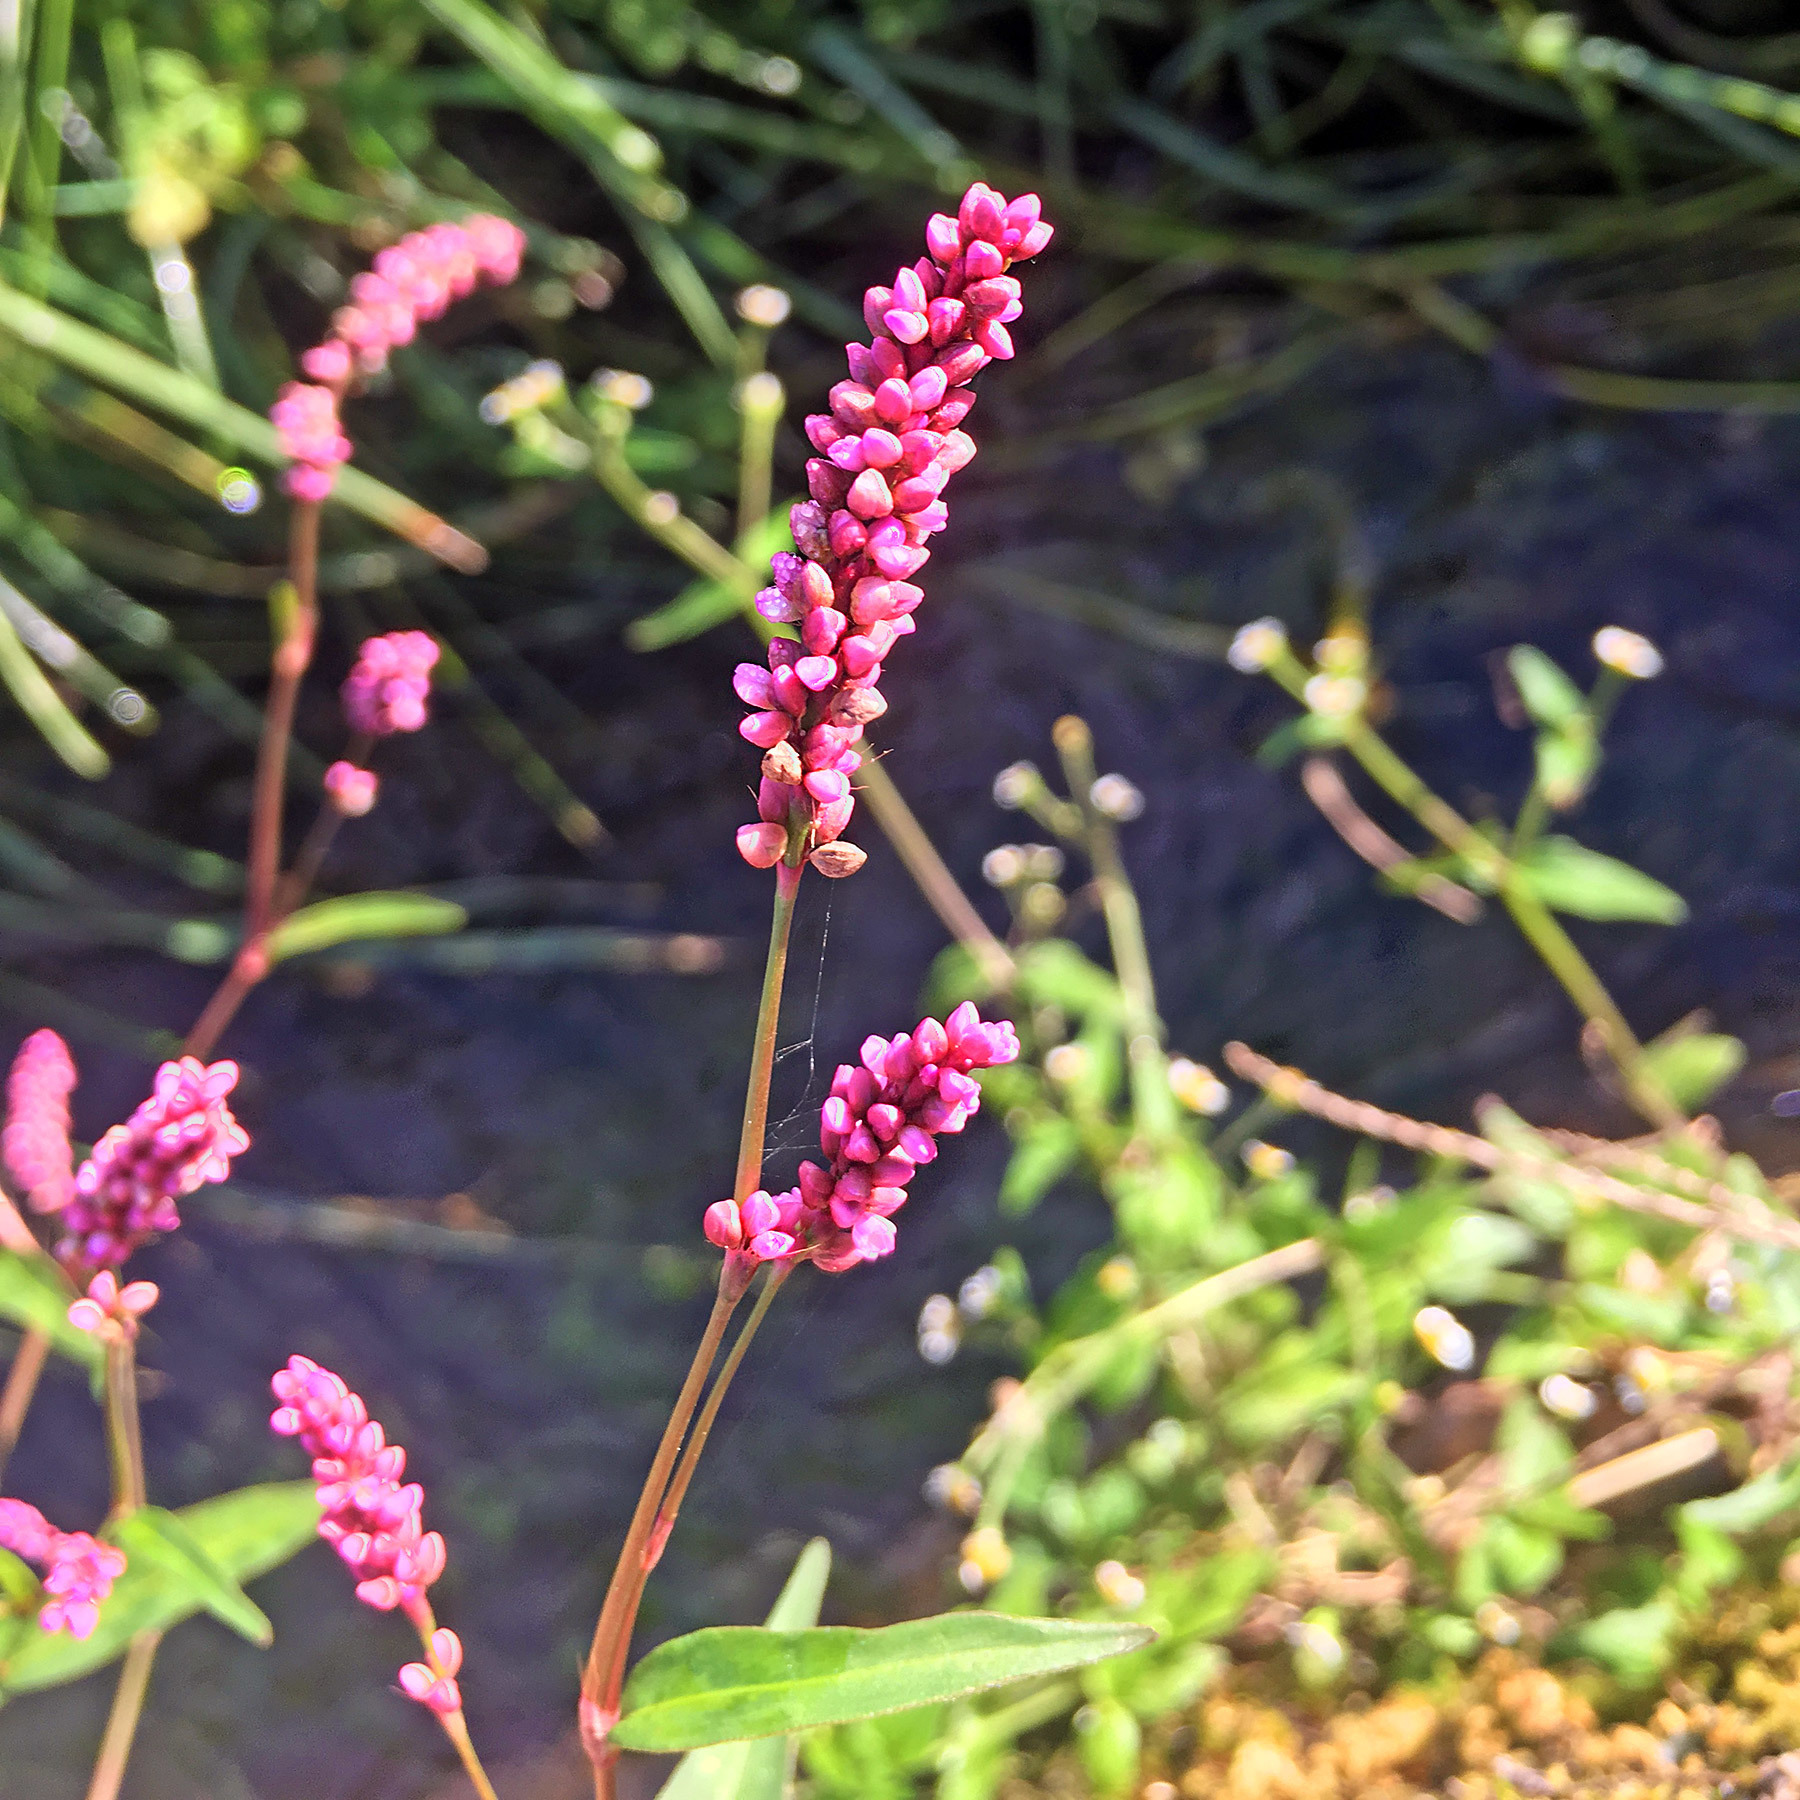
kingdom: Plantae
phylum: Tracheophyta
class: Magnoliopsida
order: Caryophyllales
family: Polygonaceae
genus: Persicaria
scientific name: Persicaria longiseta
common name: Bristly lady's-thumb
